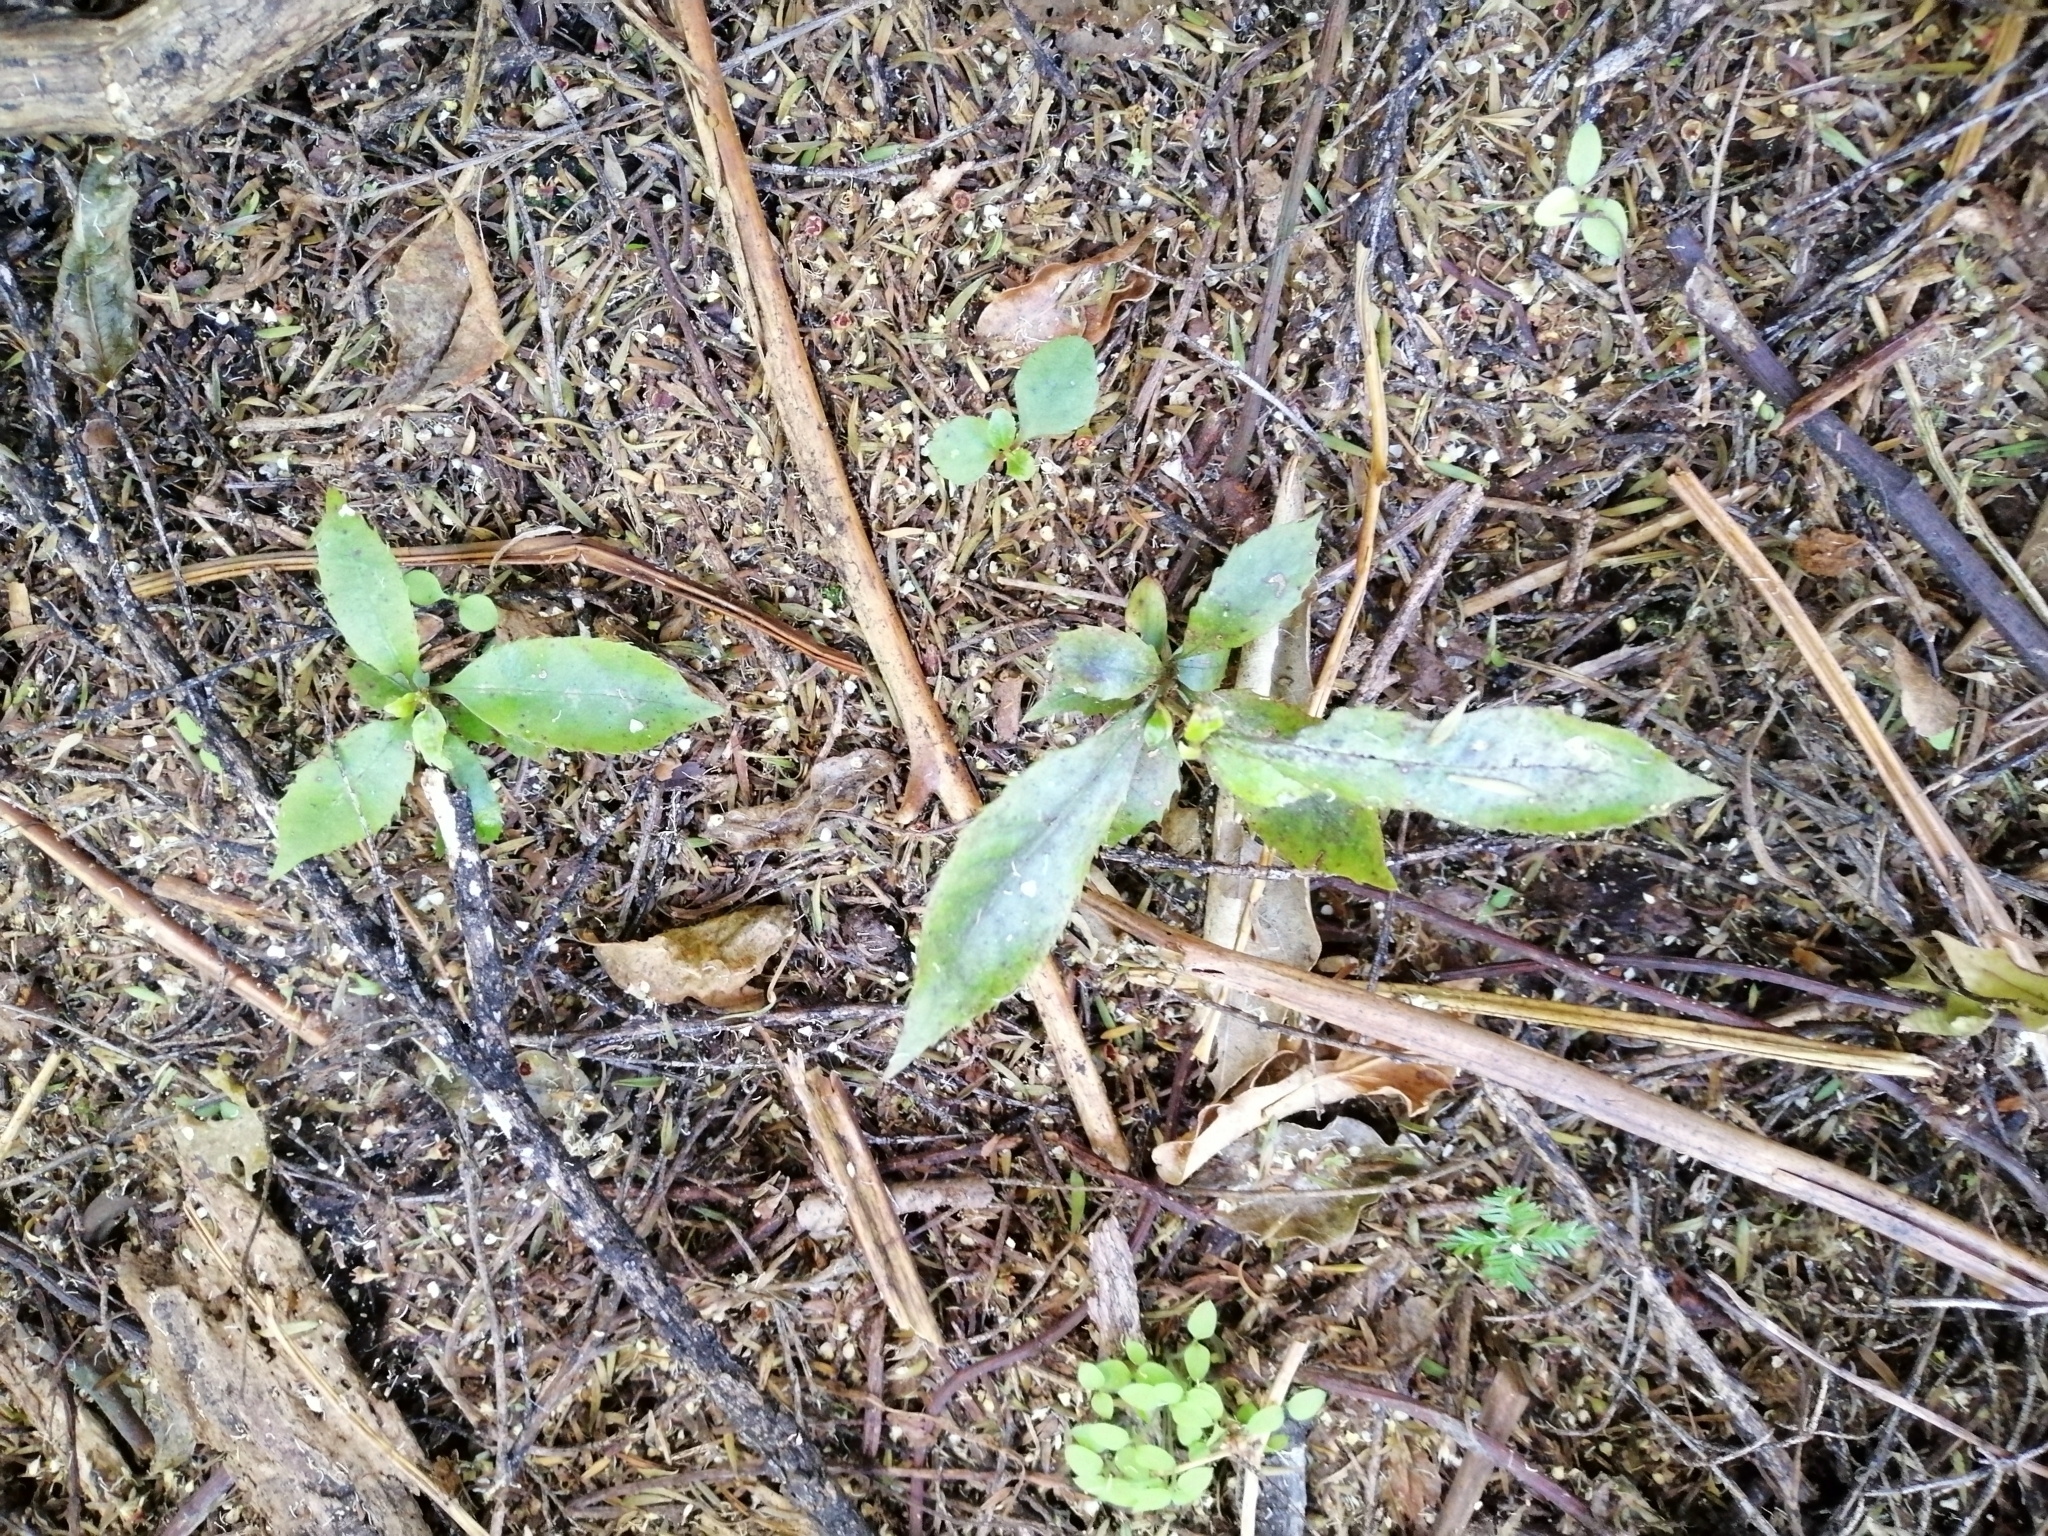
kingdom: Plantae
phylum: Tracheophyta
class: Magnoliopsida
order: Oxalidales
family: Elaeocarpaceae
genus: Elaeocarpus
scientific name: Elaeocarpus dentatus
